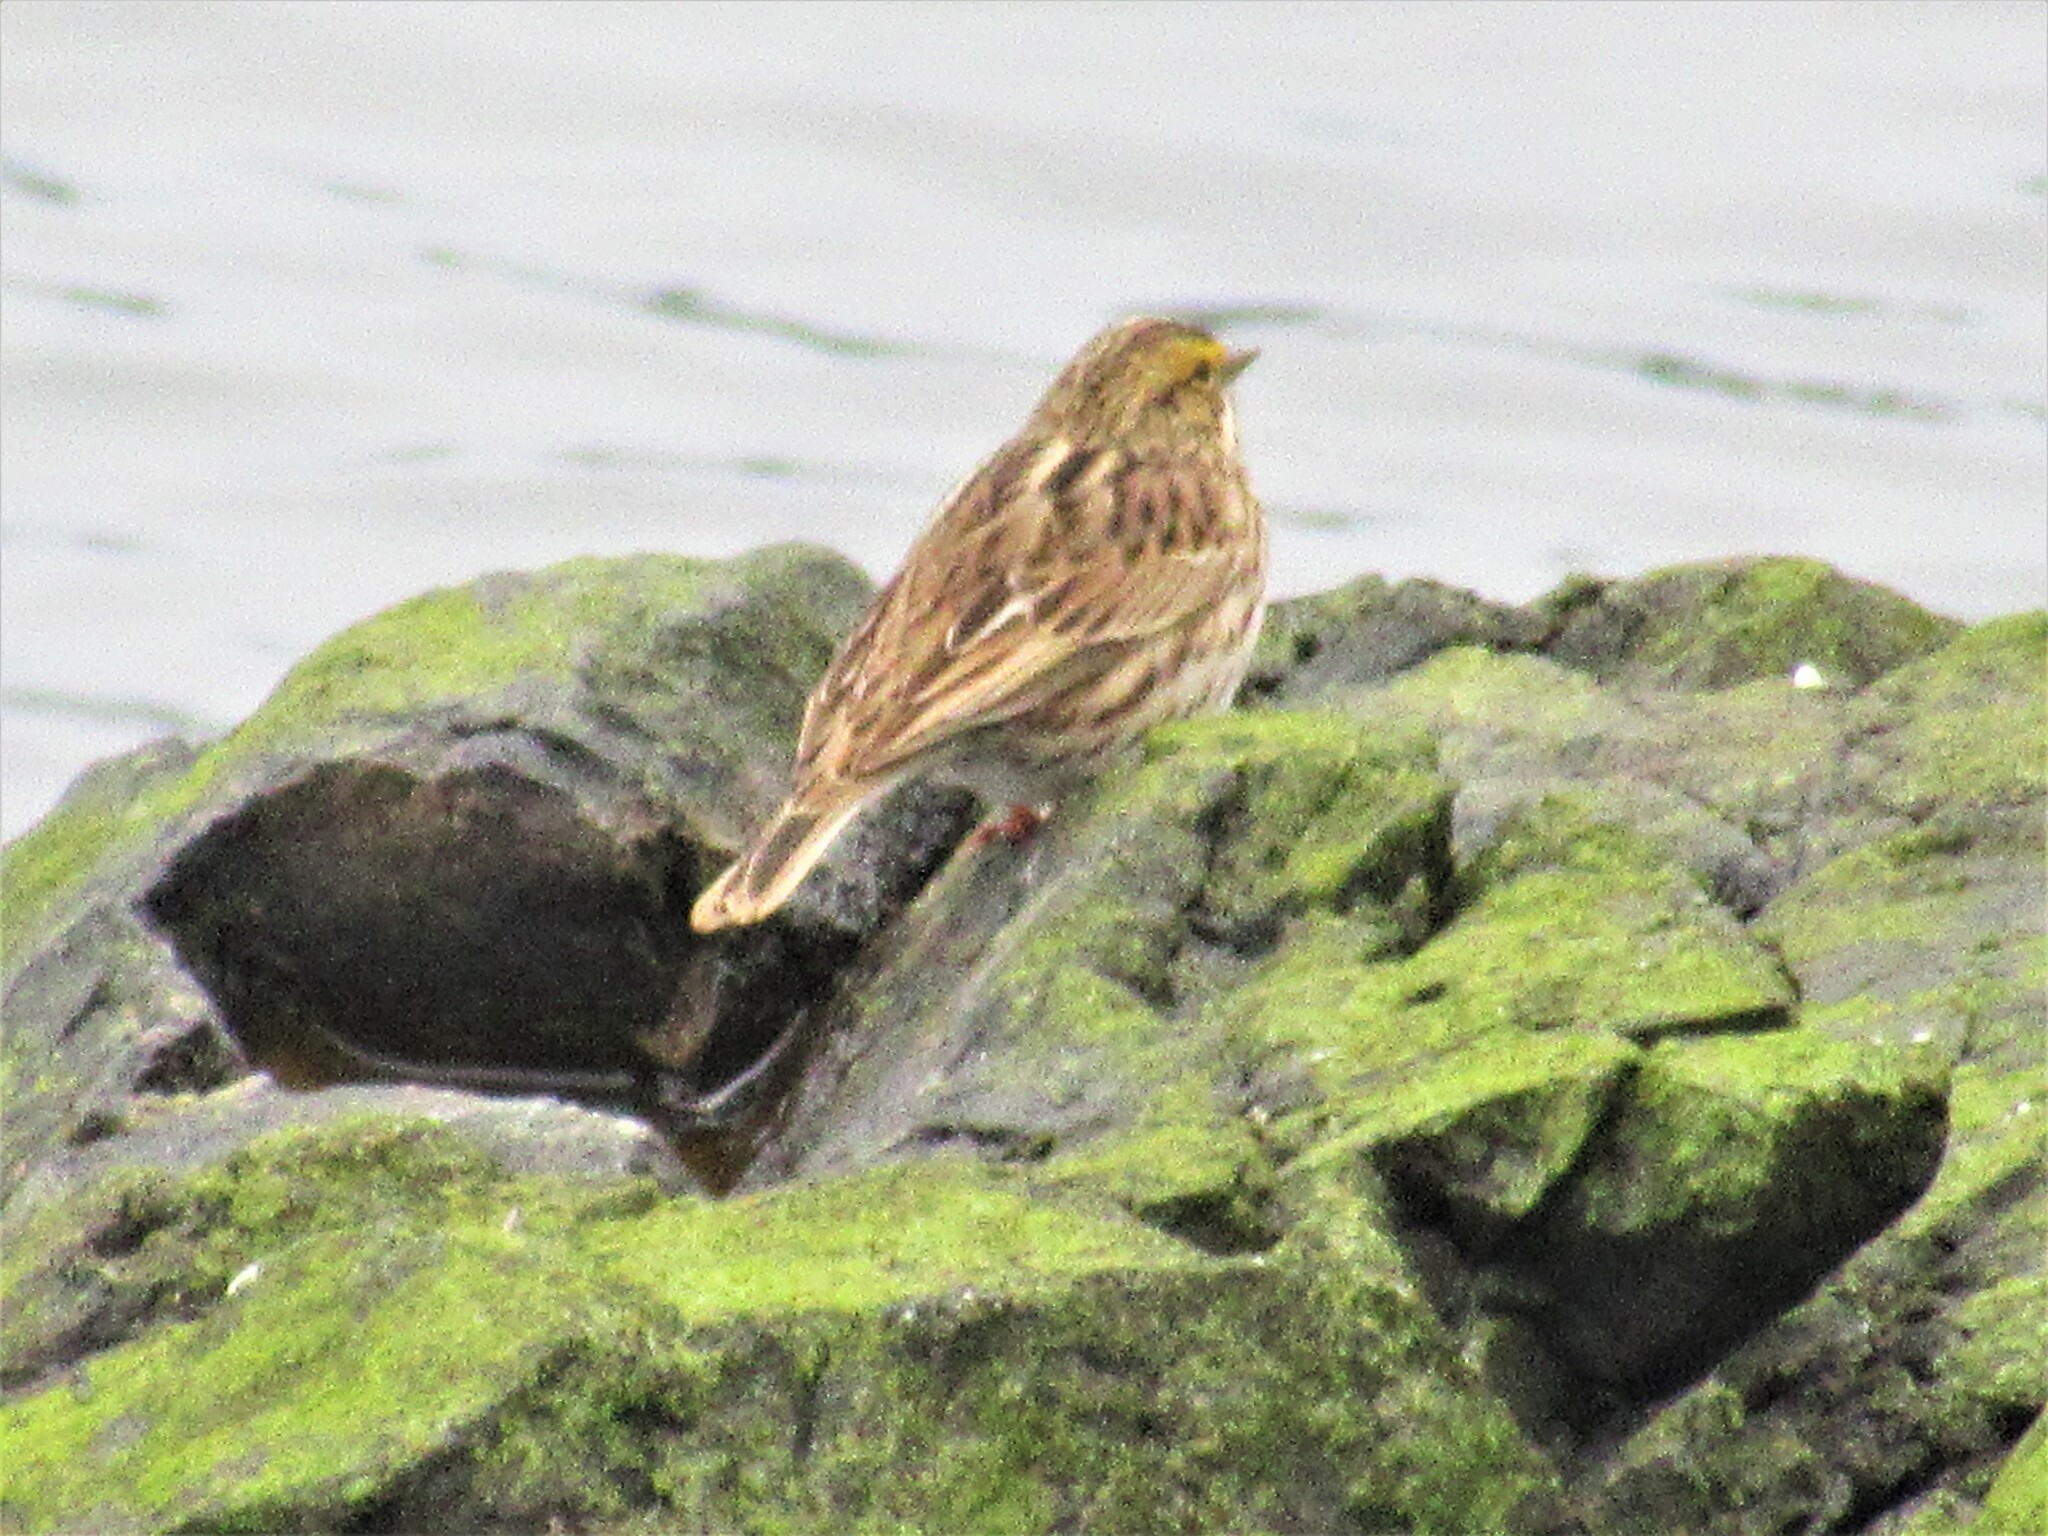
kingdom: Animalia
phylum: Chordata
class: Aves
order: Passeriformes
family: Passerellidae
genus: Passerculus
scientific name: Passerculus sandwichensis
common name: Savannah sparrow
